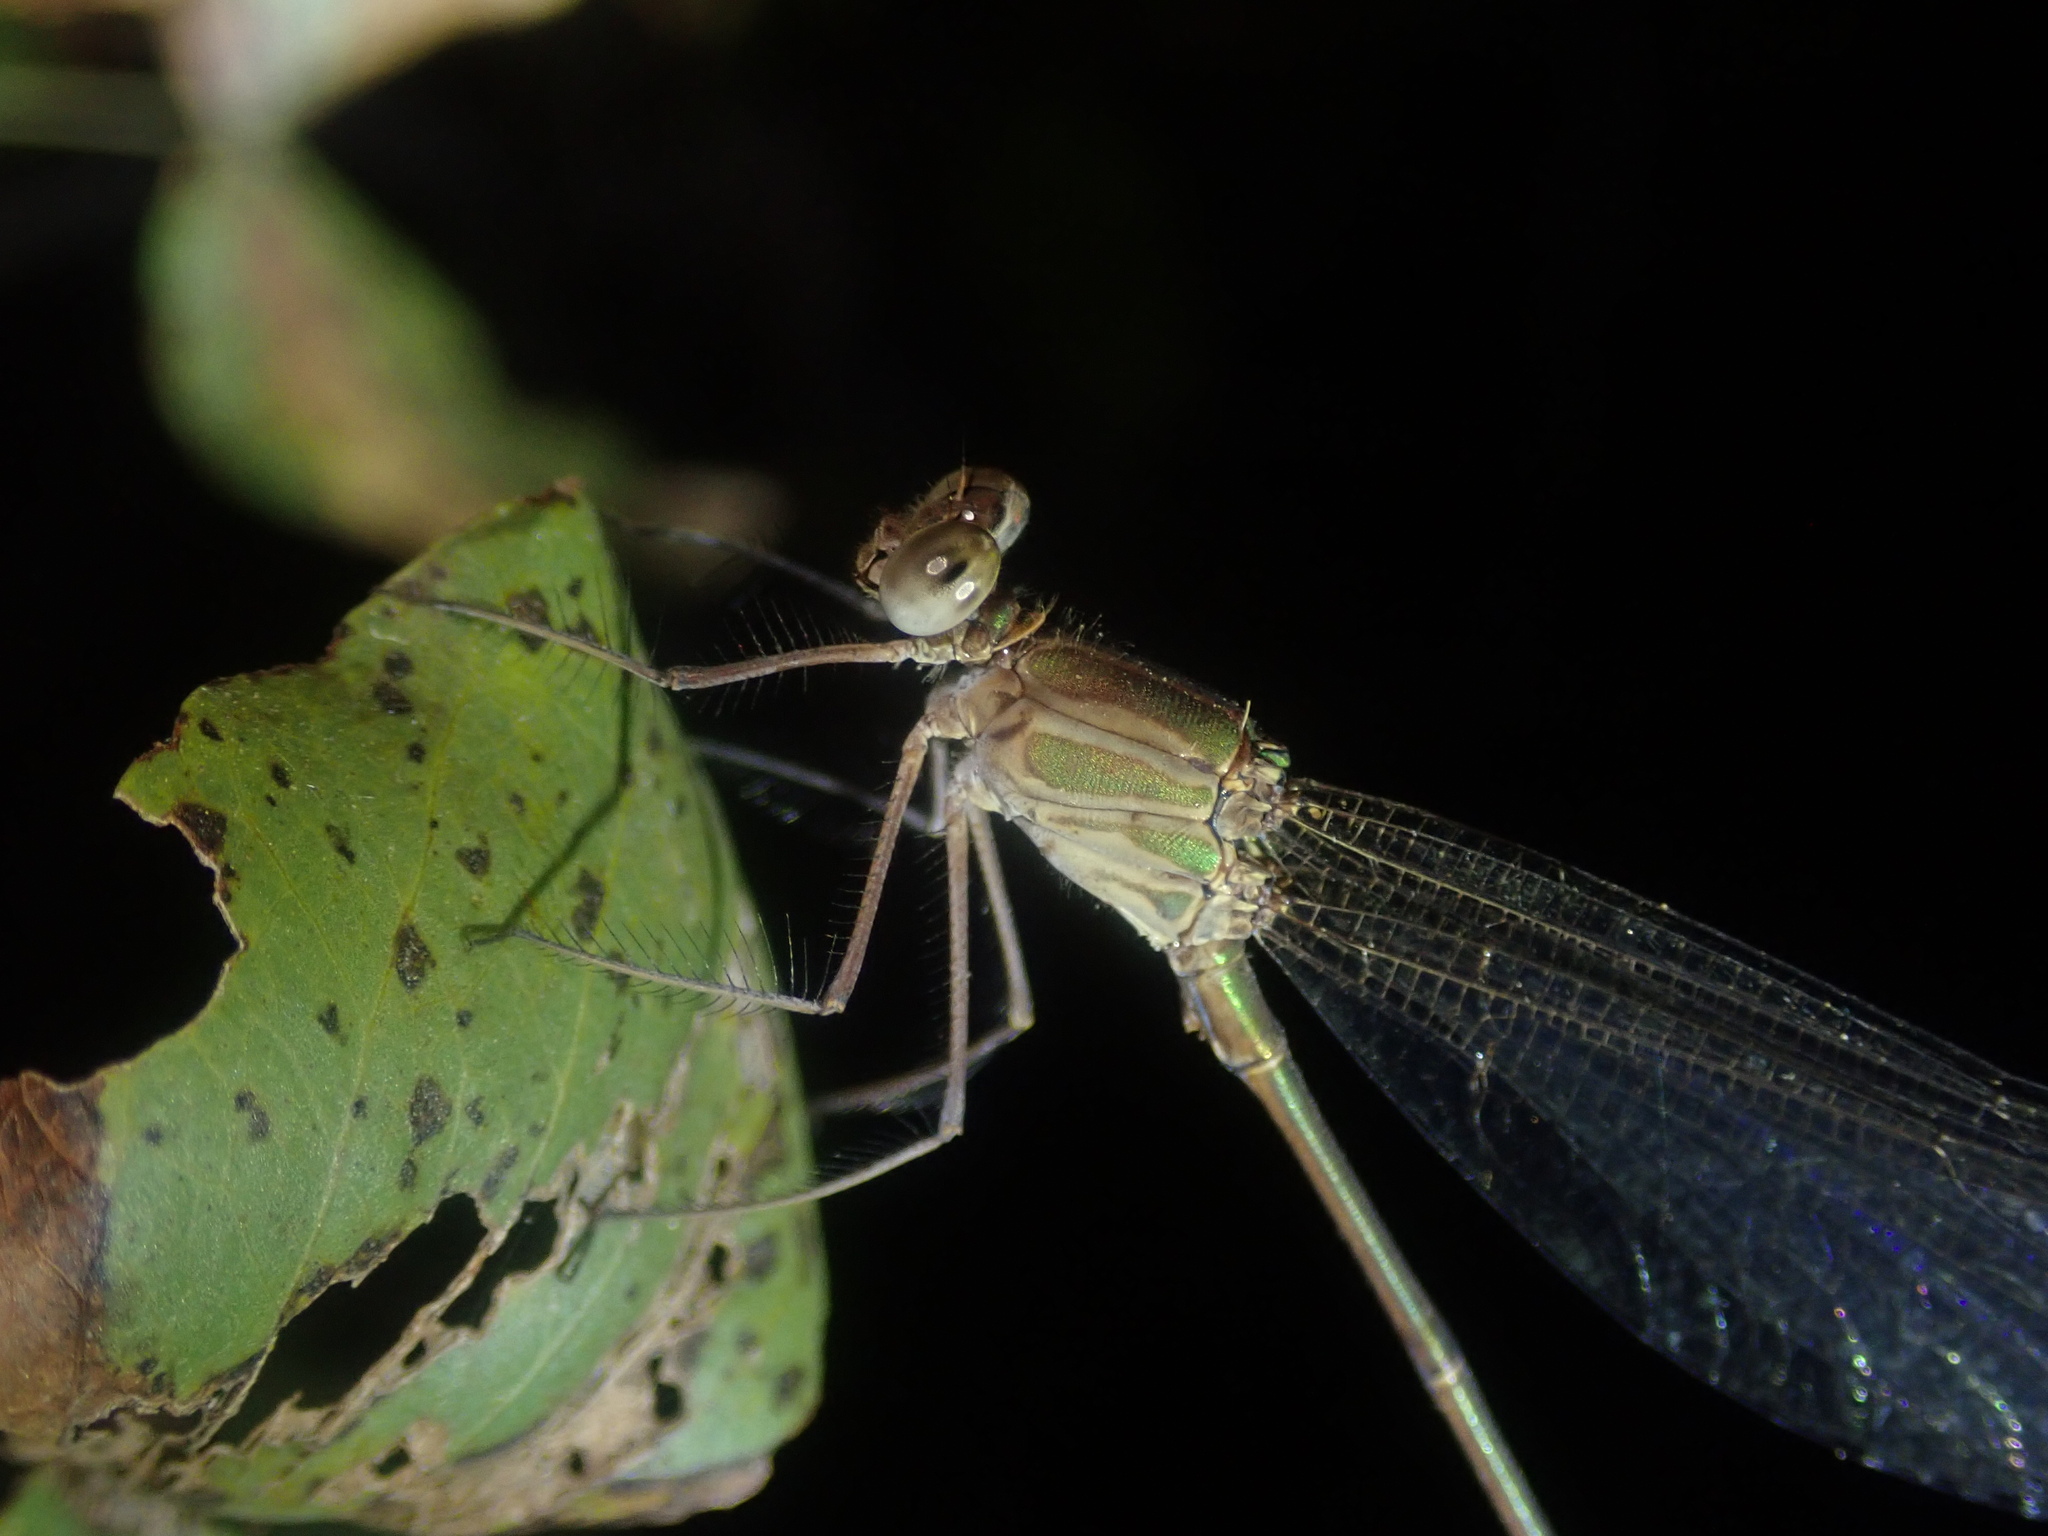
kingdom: Animalia
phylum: Arthropoda
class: Insecta
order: Odonata
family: Calopterygidae
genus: Phaon
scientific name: Phaon iridipennis
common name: Glistening demoiselle
